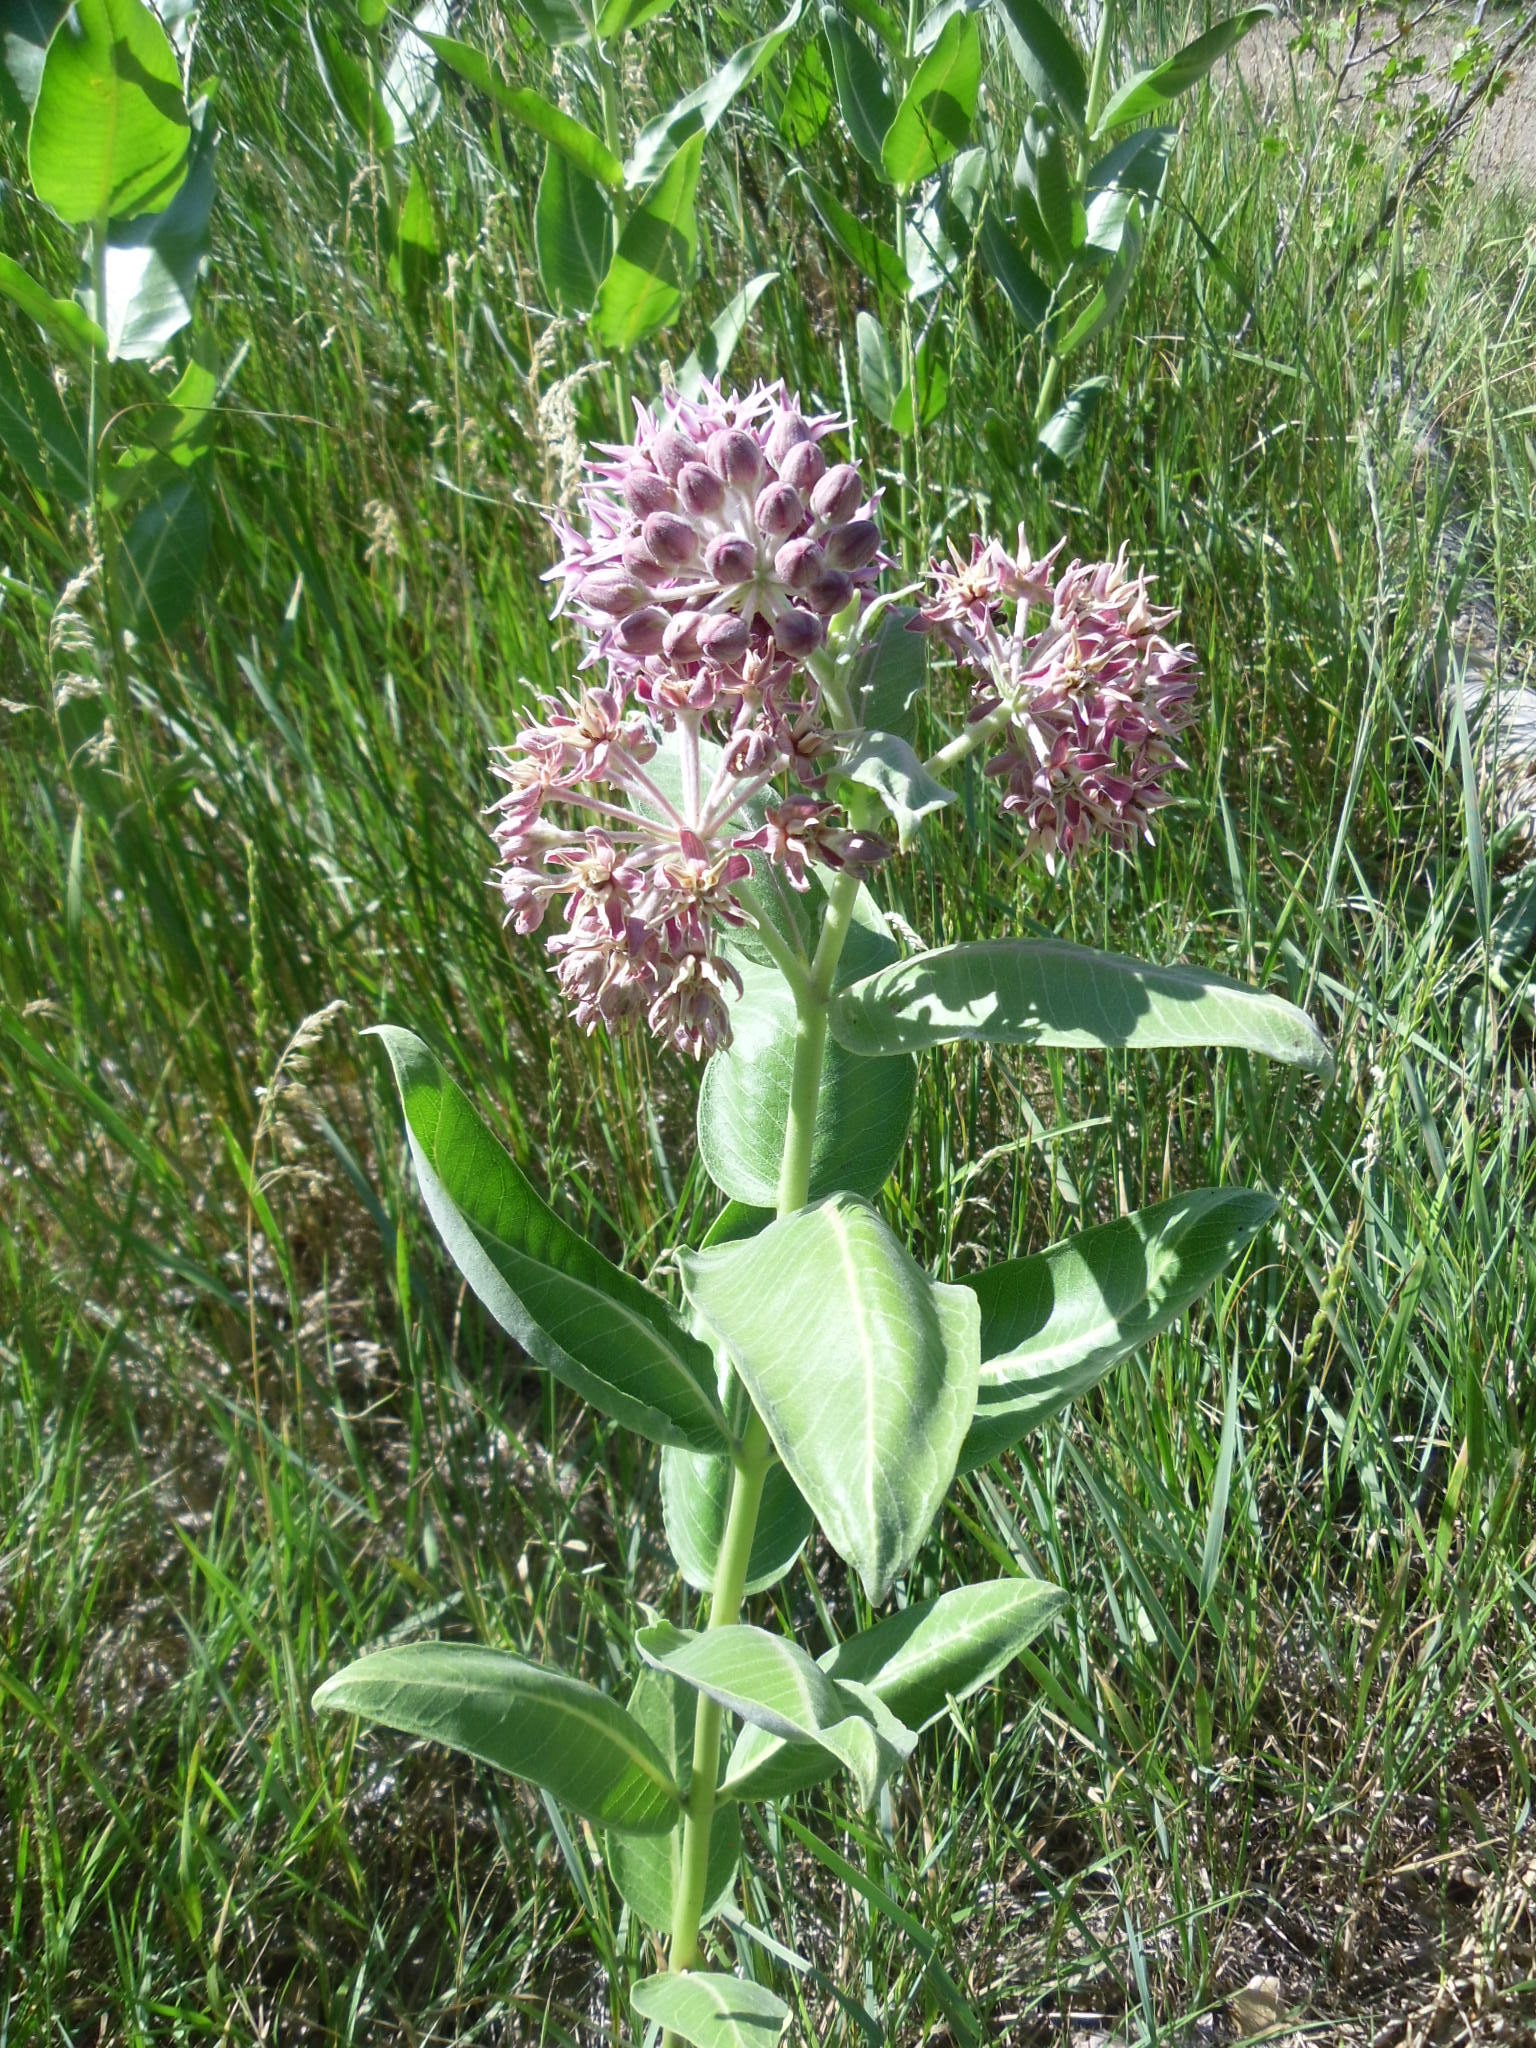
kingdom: Plantae
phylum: Tracheophyta
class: Magnoliopsida
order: Gentianales
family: Apocynaceae
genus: Asclepias
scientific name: Asclepias speciosa
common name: Showy milkweed
